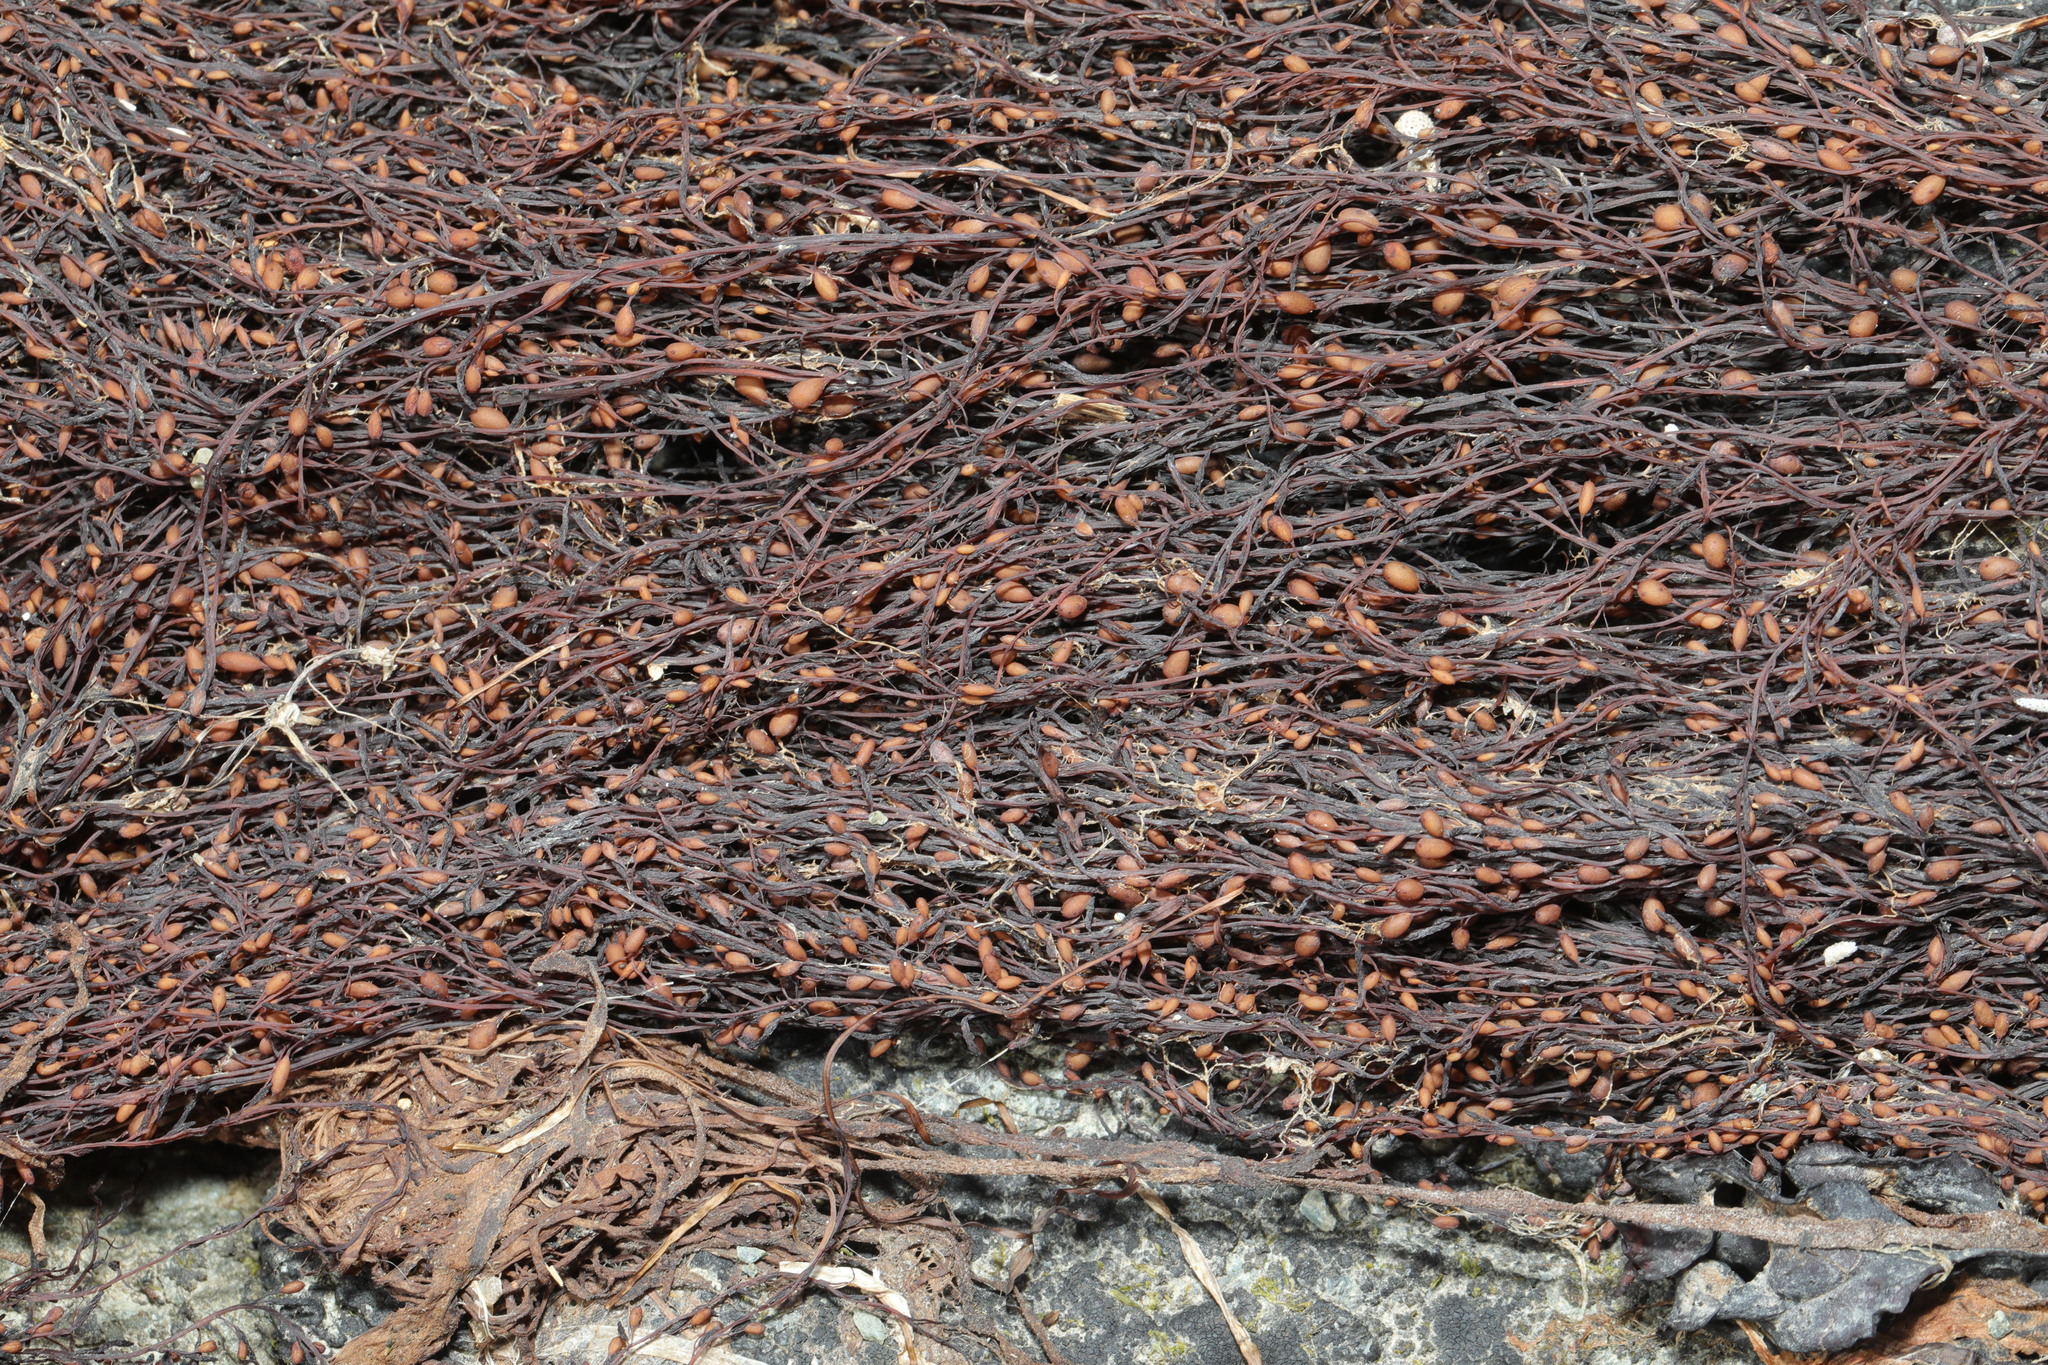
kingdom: Chromista
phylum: Ochrophyta
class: Phaeophyceae
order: Fucales
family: Sargassaceae
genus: Sargassum
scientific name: Sargassum muticum
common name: Japweed
